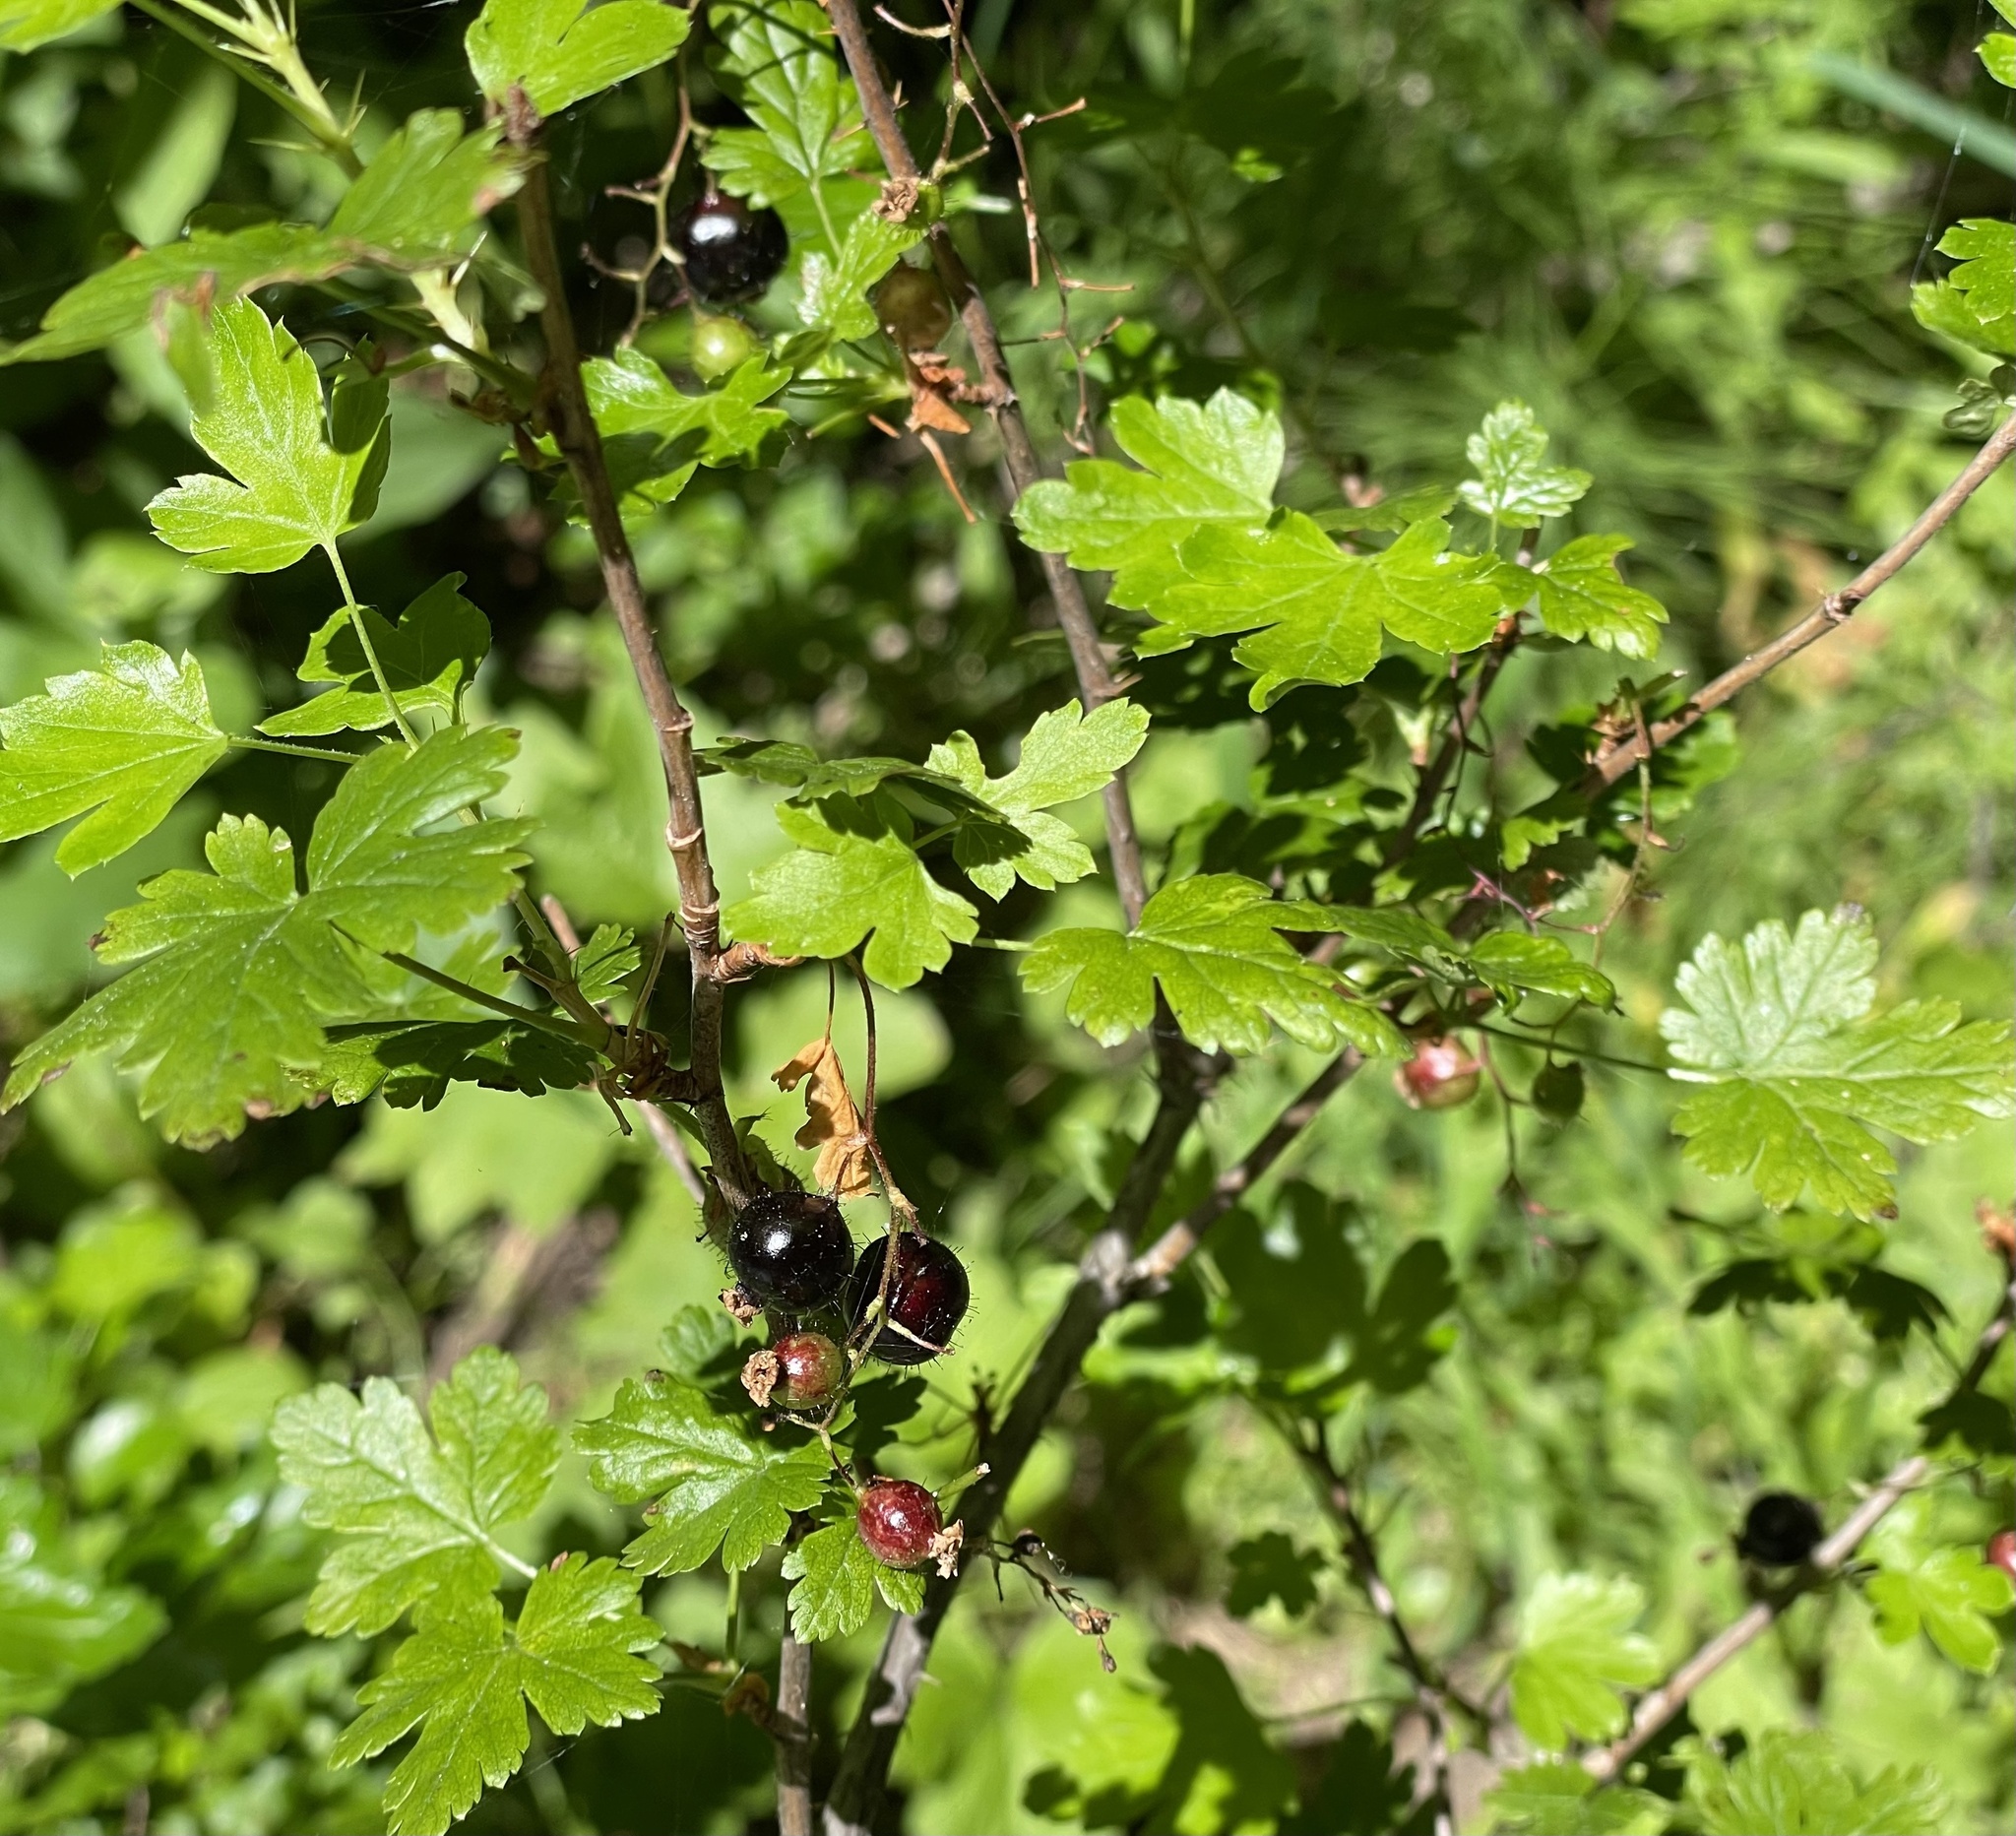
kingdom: Plantae
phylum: Tracheophyta
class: Magnoliopsida
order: Saxifragales
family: Grossulariaceae
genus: Ribes
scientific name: Ribes lacustre
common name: Black gooseberry
